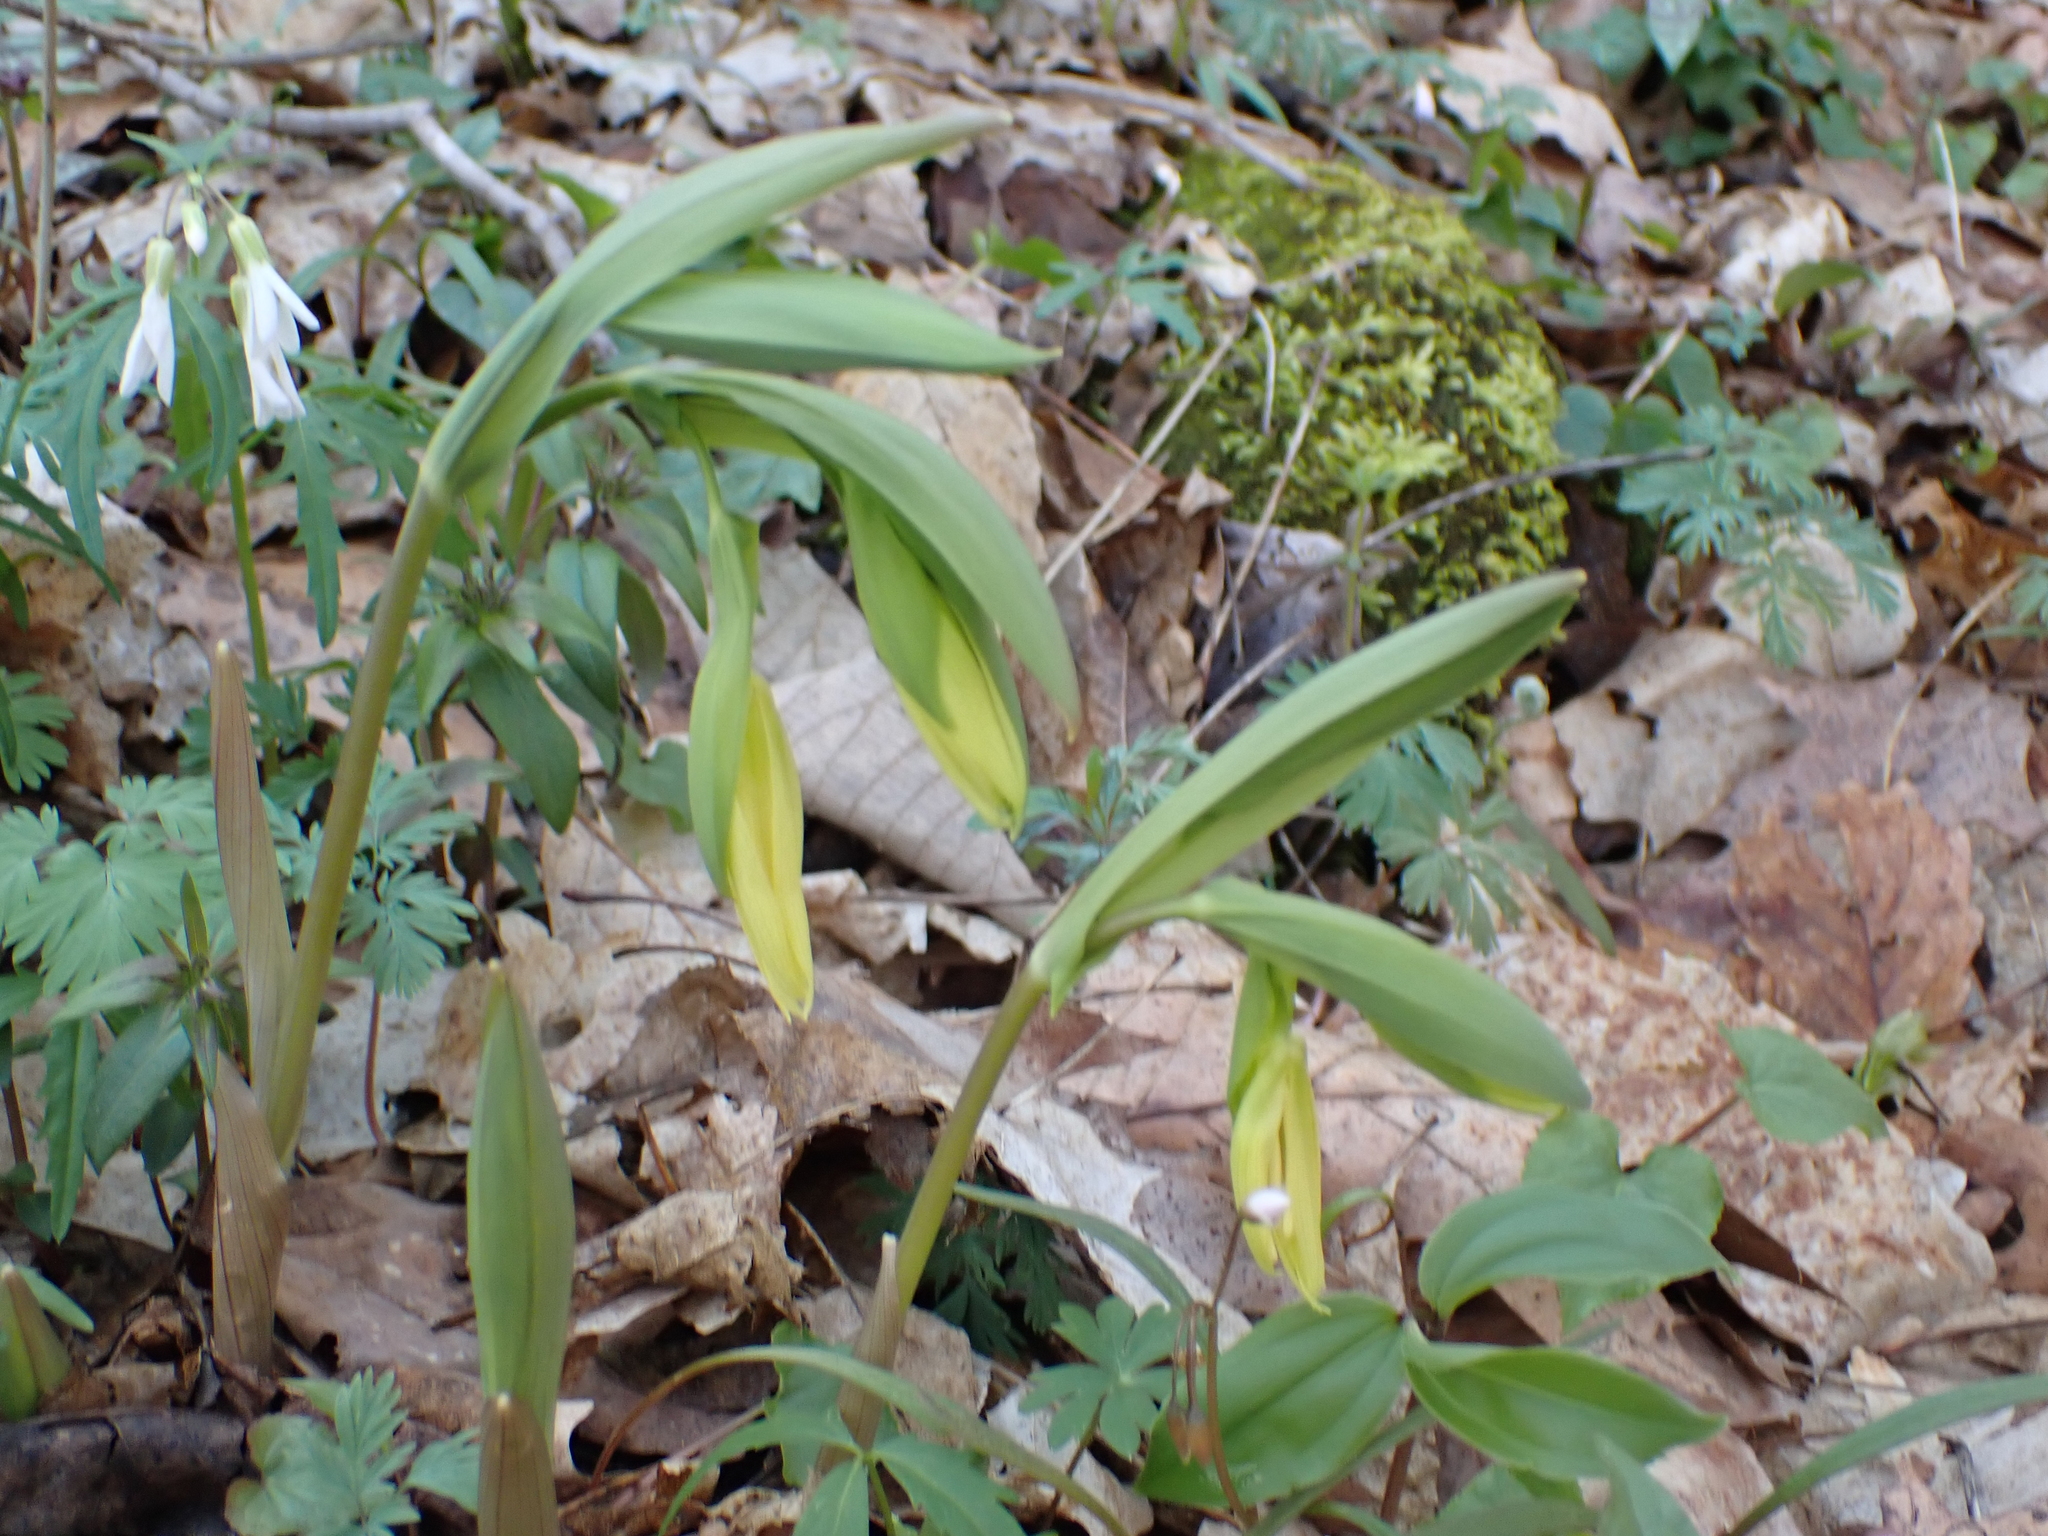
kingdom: Plantae
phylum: Tracheophyta
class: Liliopsida
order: Liliales
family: Colchicaceae
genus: Uvularia
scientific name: Uvularia grandiflora
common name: Bellwort
